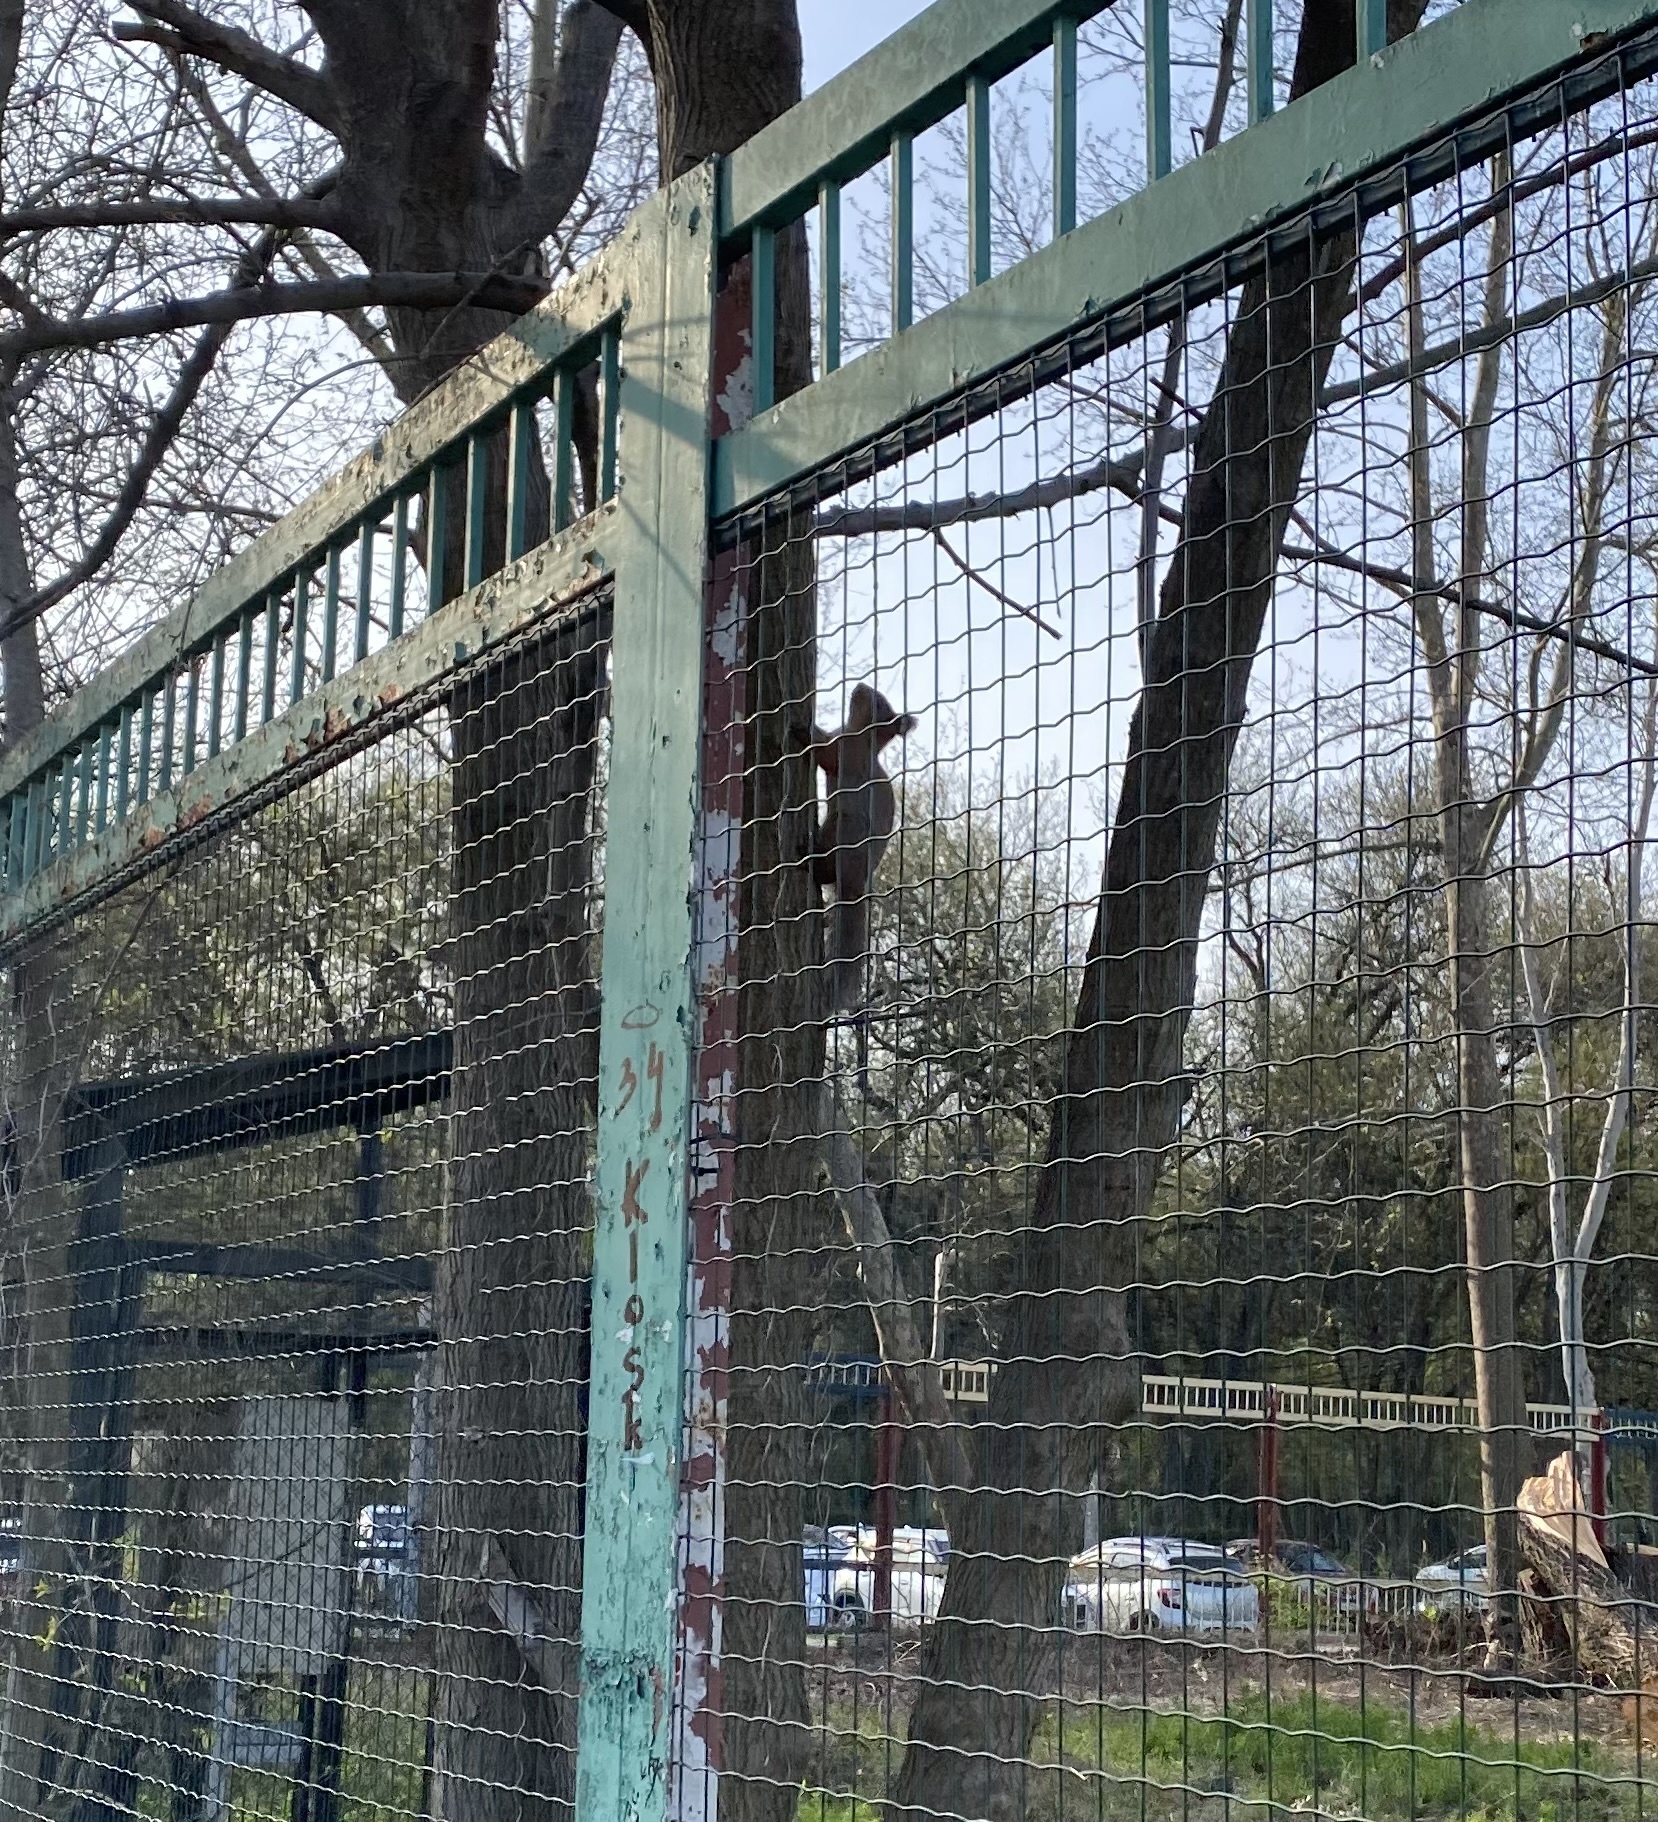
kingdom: Animalia
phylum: Chordata
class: Mammalia
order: Rodentia
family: Sciuridae
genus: Sciurus
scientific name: Sciurus vulgaris
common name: Eurasian red squirrel
